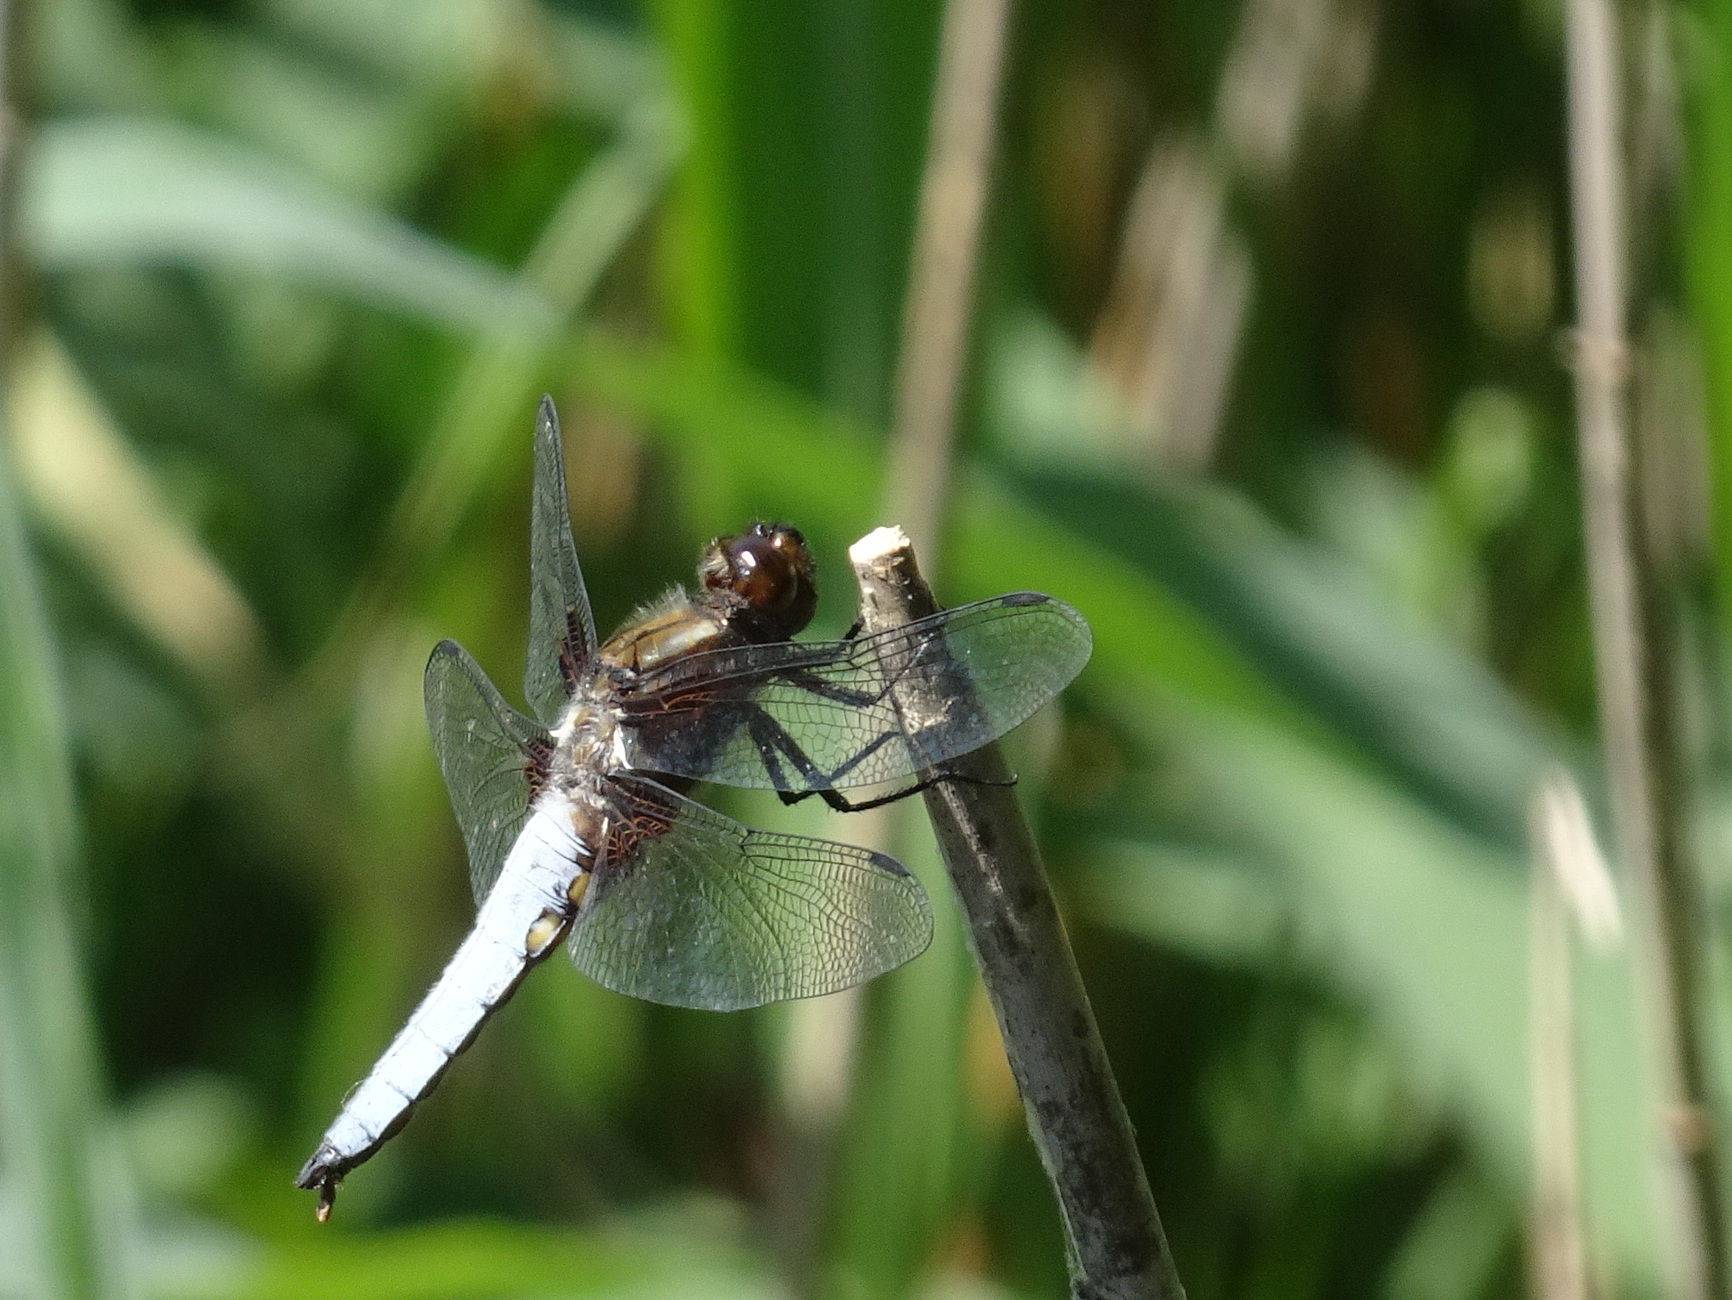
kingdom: Animalia
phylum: Arthropoda
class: Insecta
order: Odonata
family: Libellulidae
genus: Libellula
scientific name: Libellula depressa
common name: Broad-bodied chaser
